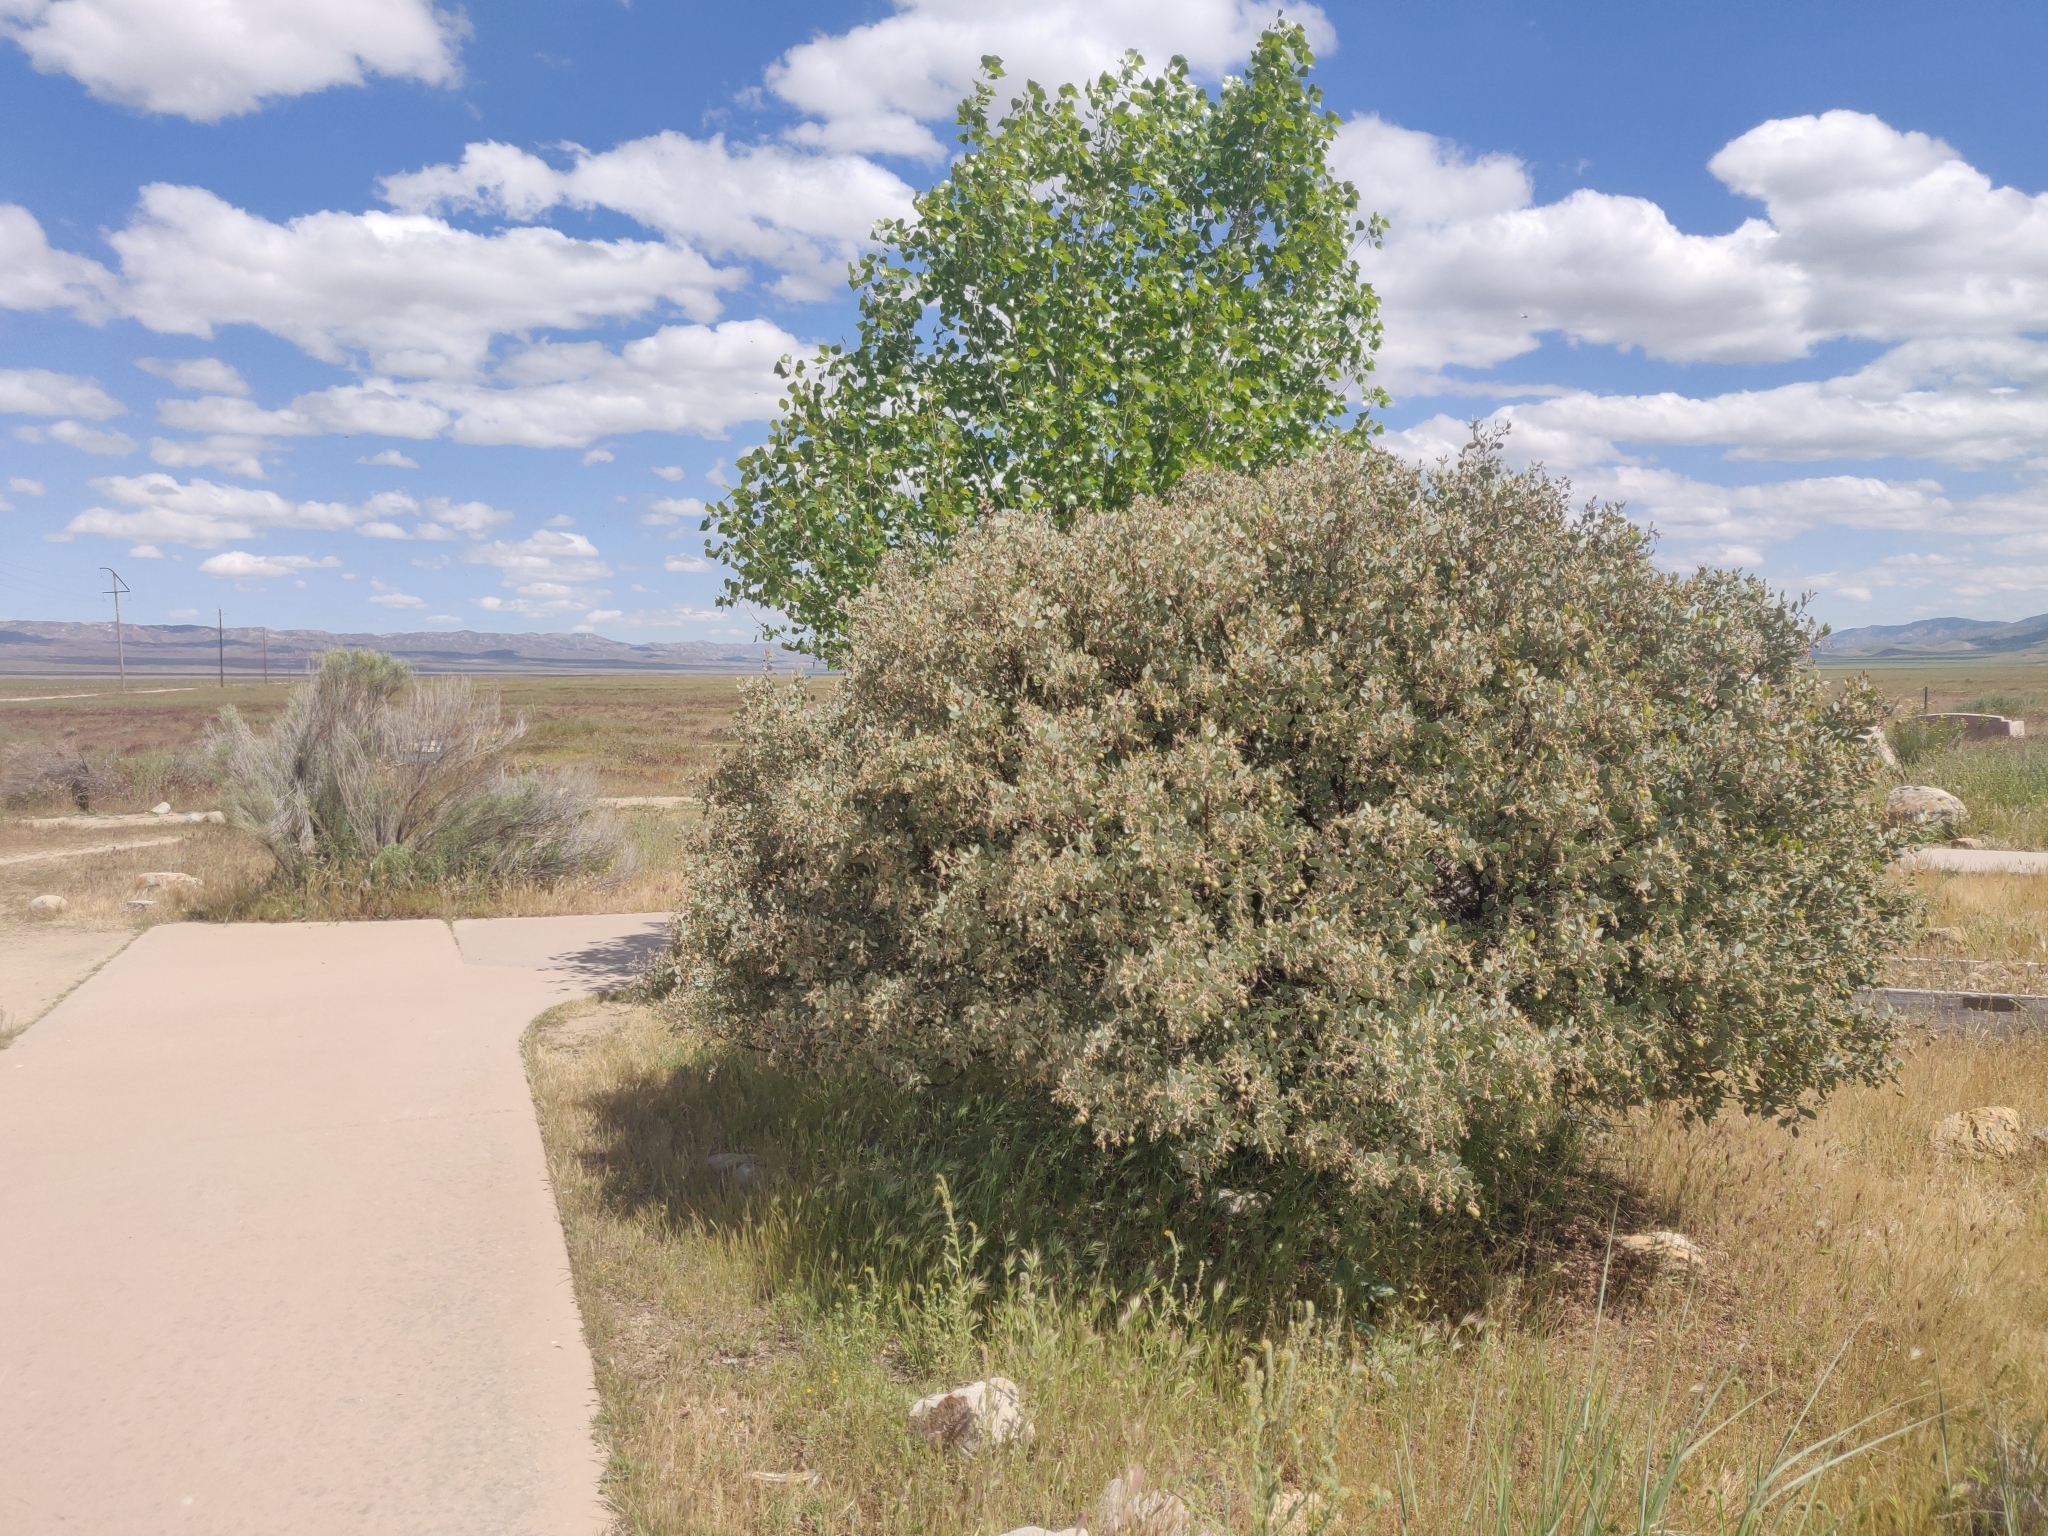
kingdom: Plantae
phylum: Tracheophyta
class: Magnoliopsida
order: Ericales
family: Ericaceae
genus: Arctostaphylos
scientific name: Arctostaphylos glauca
